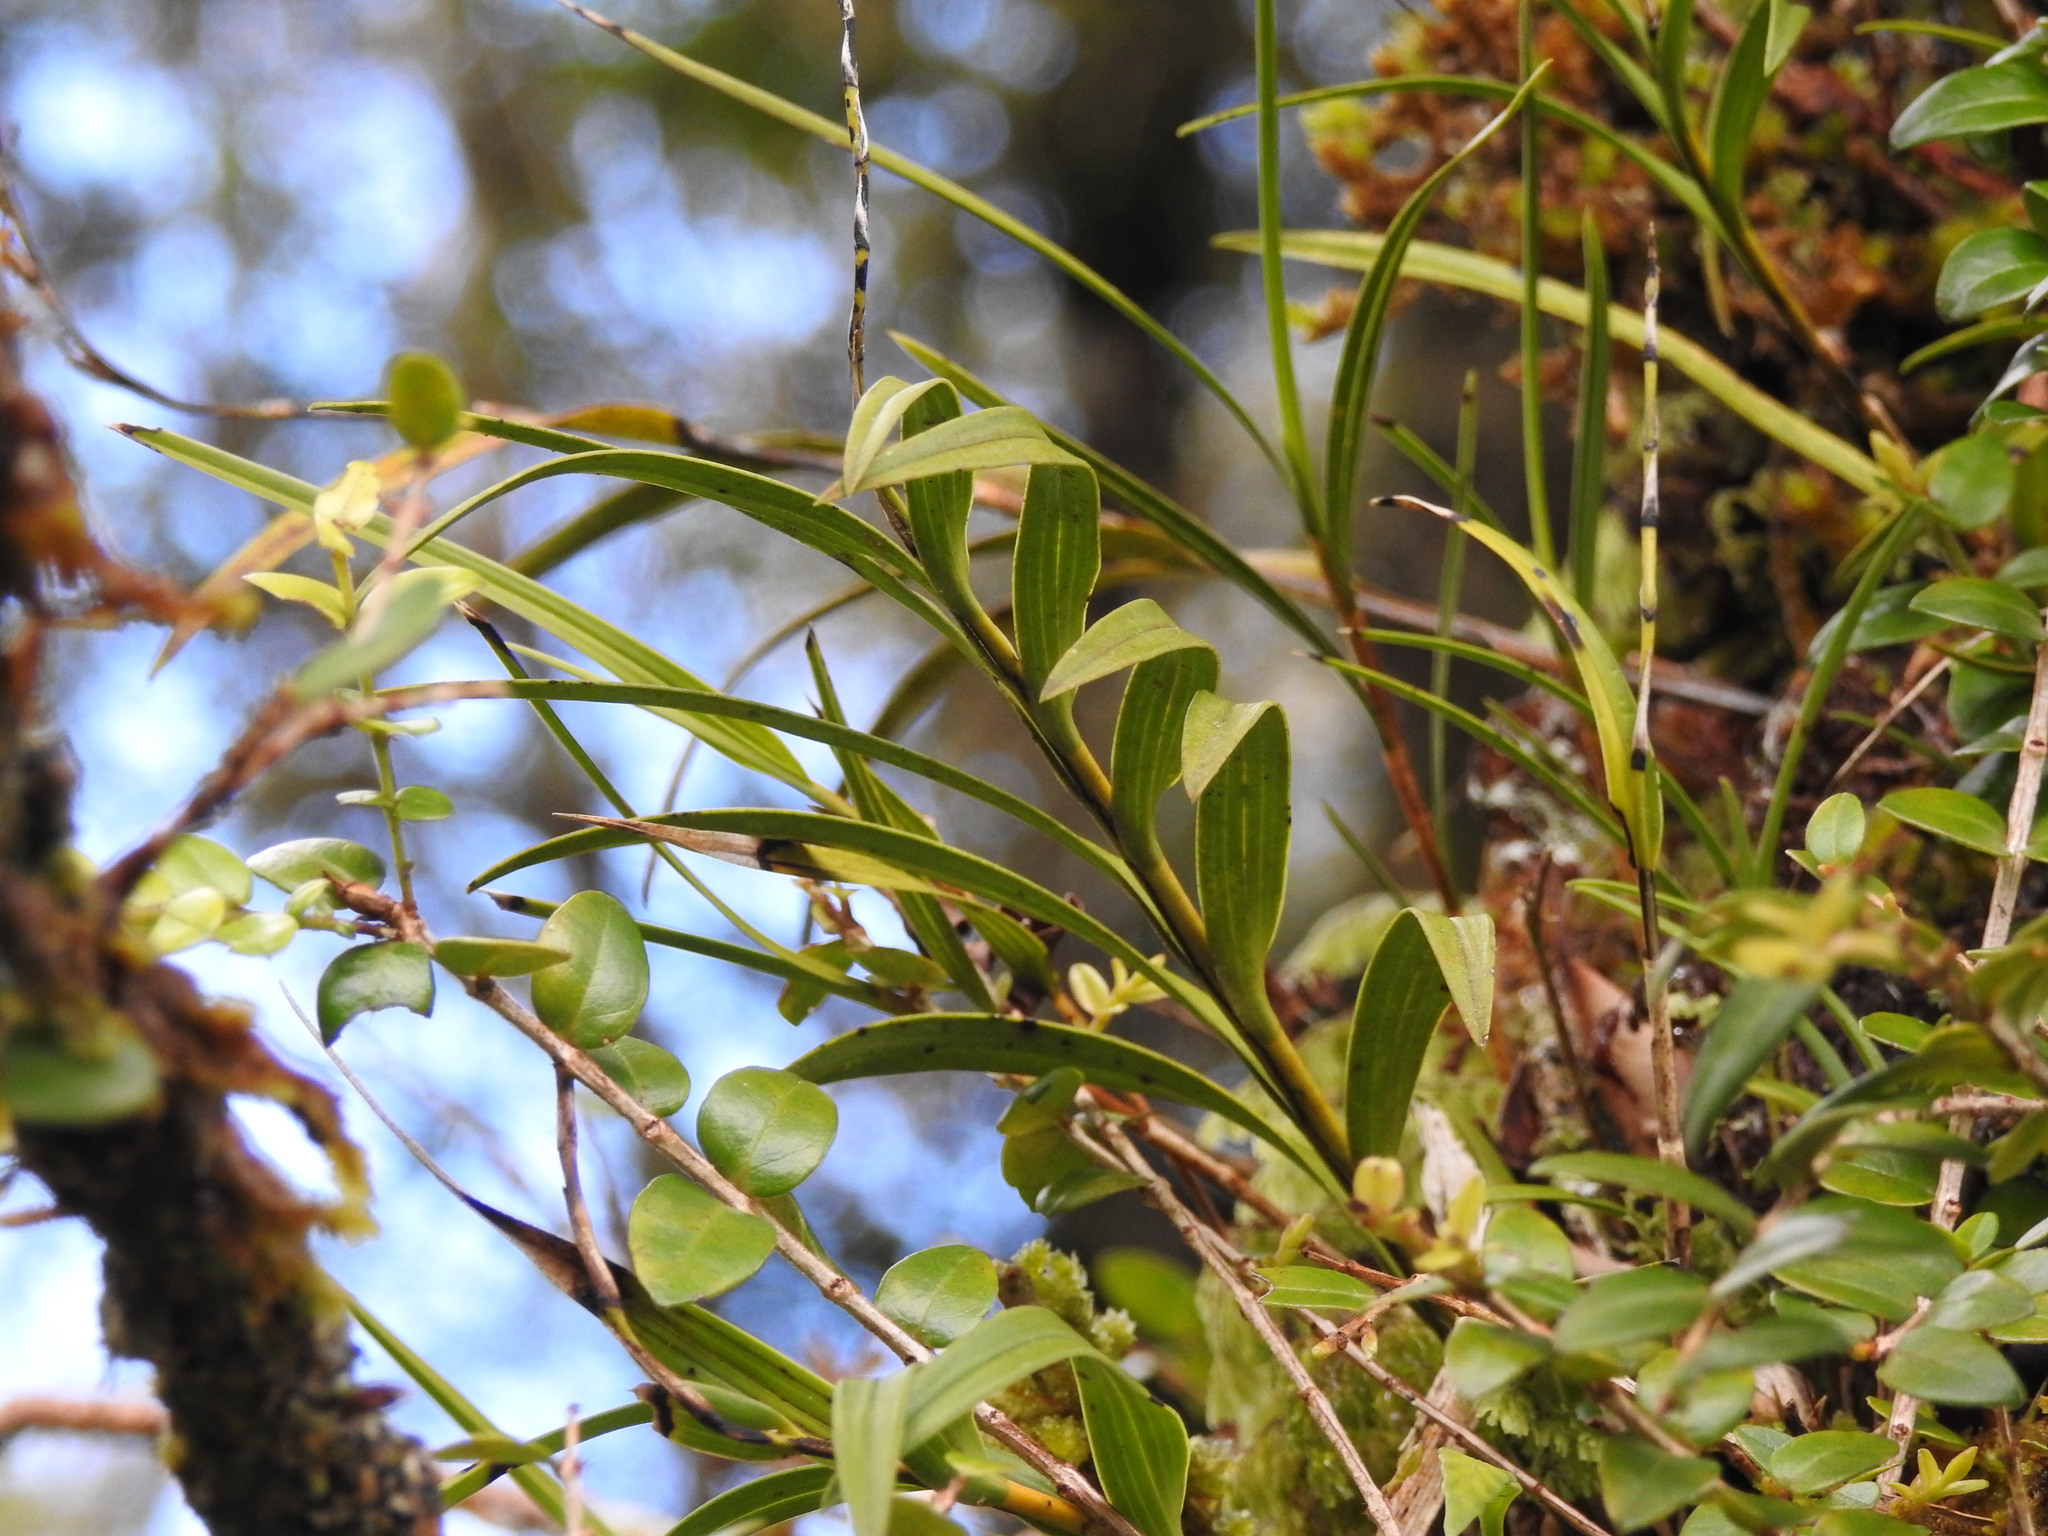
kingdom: Plantae
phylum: Tracheophyta
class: Liliopsida
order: Asparagales
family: Orchidaceae
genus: Earina
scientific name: Earina autumnalis
